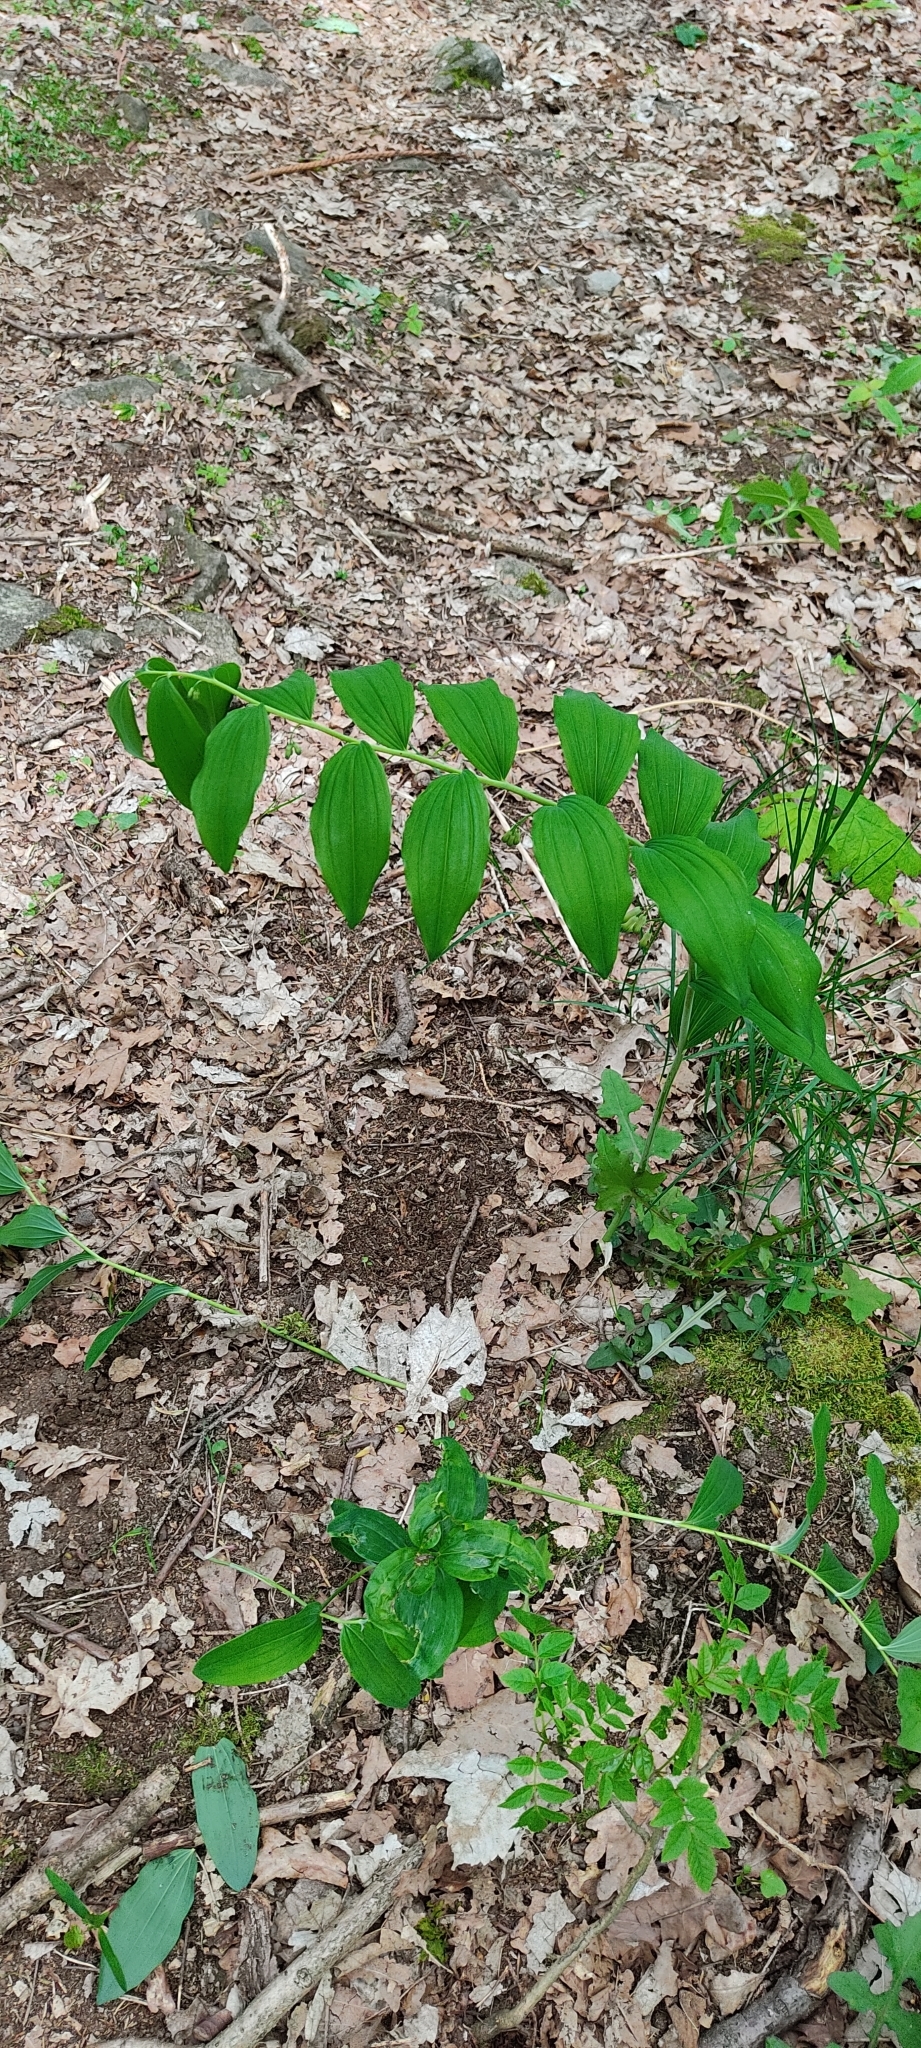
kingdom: Plantae
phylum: Tracheophyta
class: Liliopsida
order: Asparagales
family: Asparagaceae
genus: Polygonatum
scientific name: Polygonatum multiflorum
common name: Solomon's-seal
